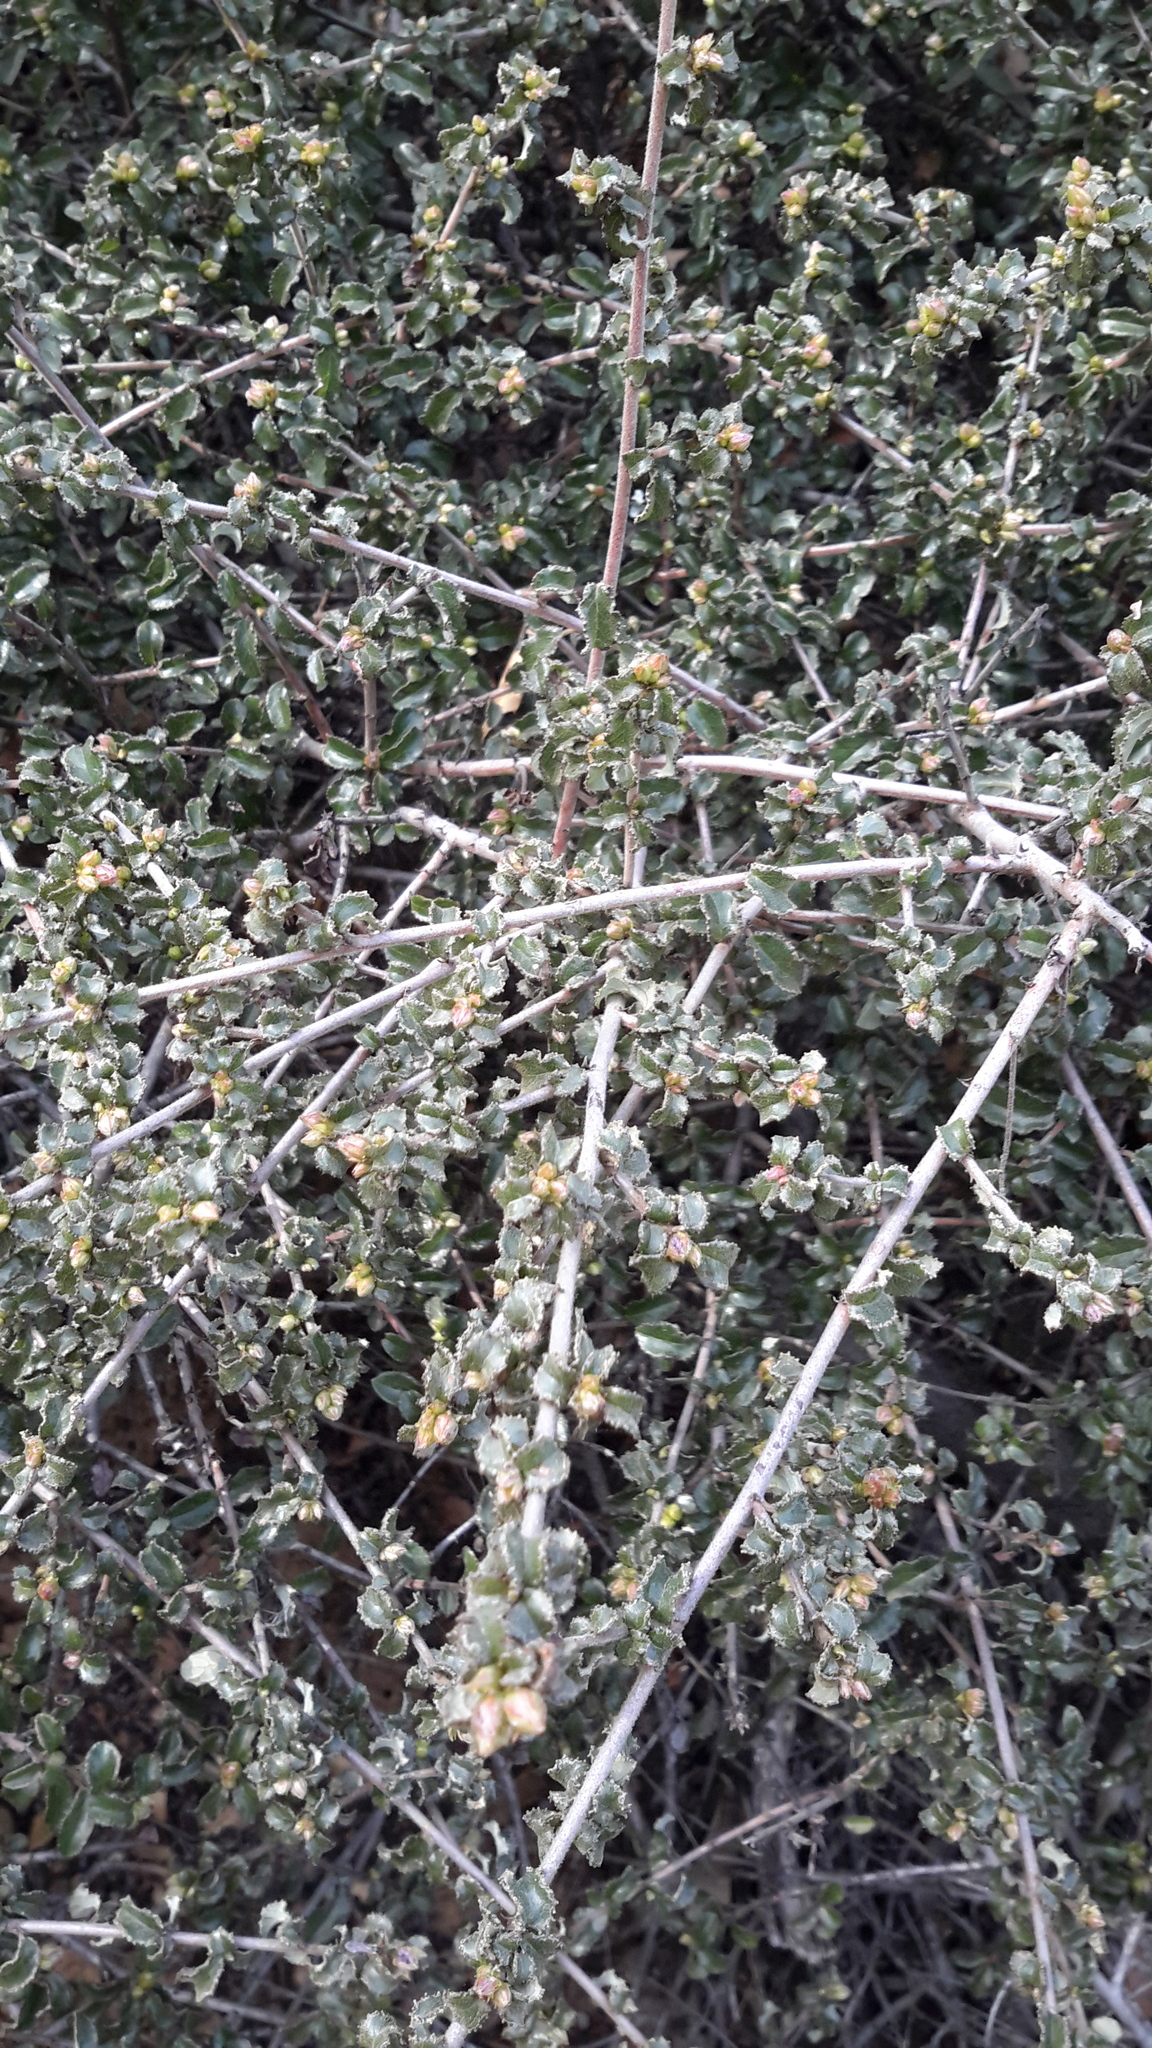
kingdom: Plantae
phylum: Tracheophyta
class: Magnoliopsida
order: Rosales
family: Rhamnaceae
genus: Ceanothus
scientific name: Ceanothus foliosus
